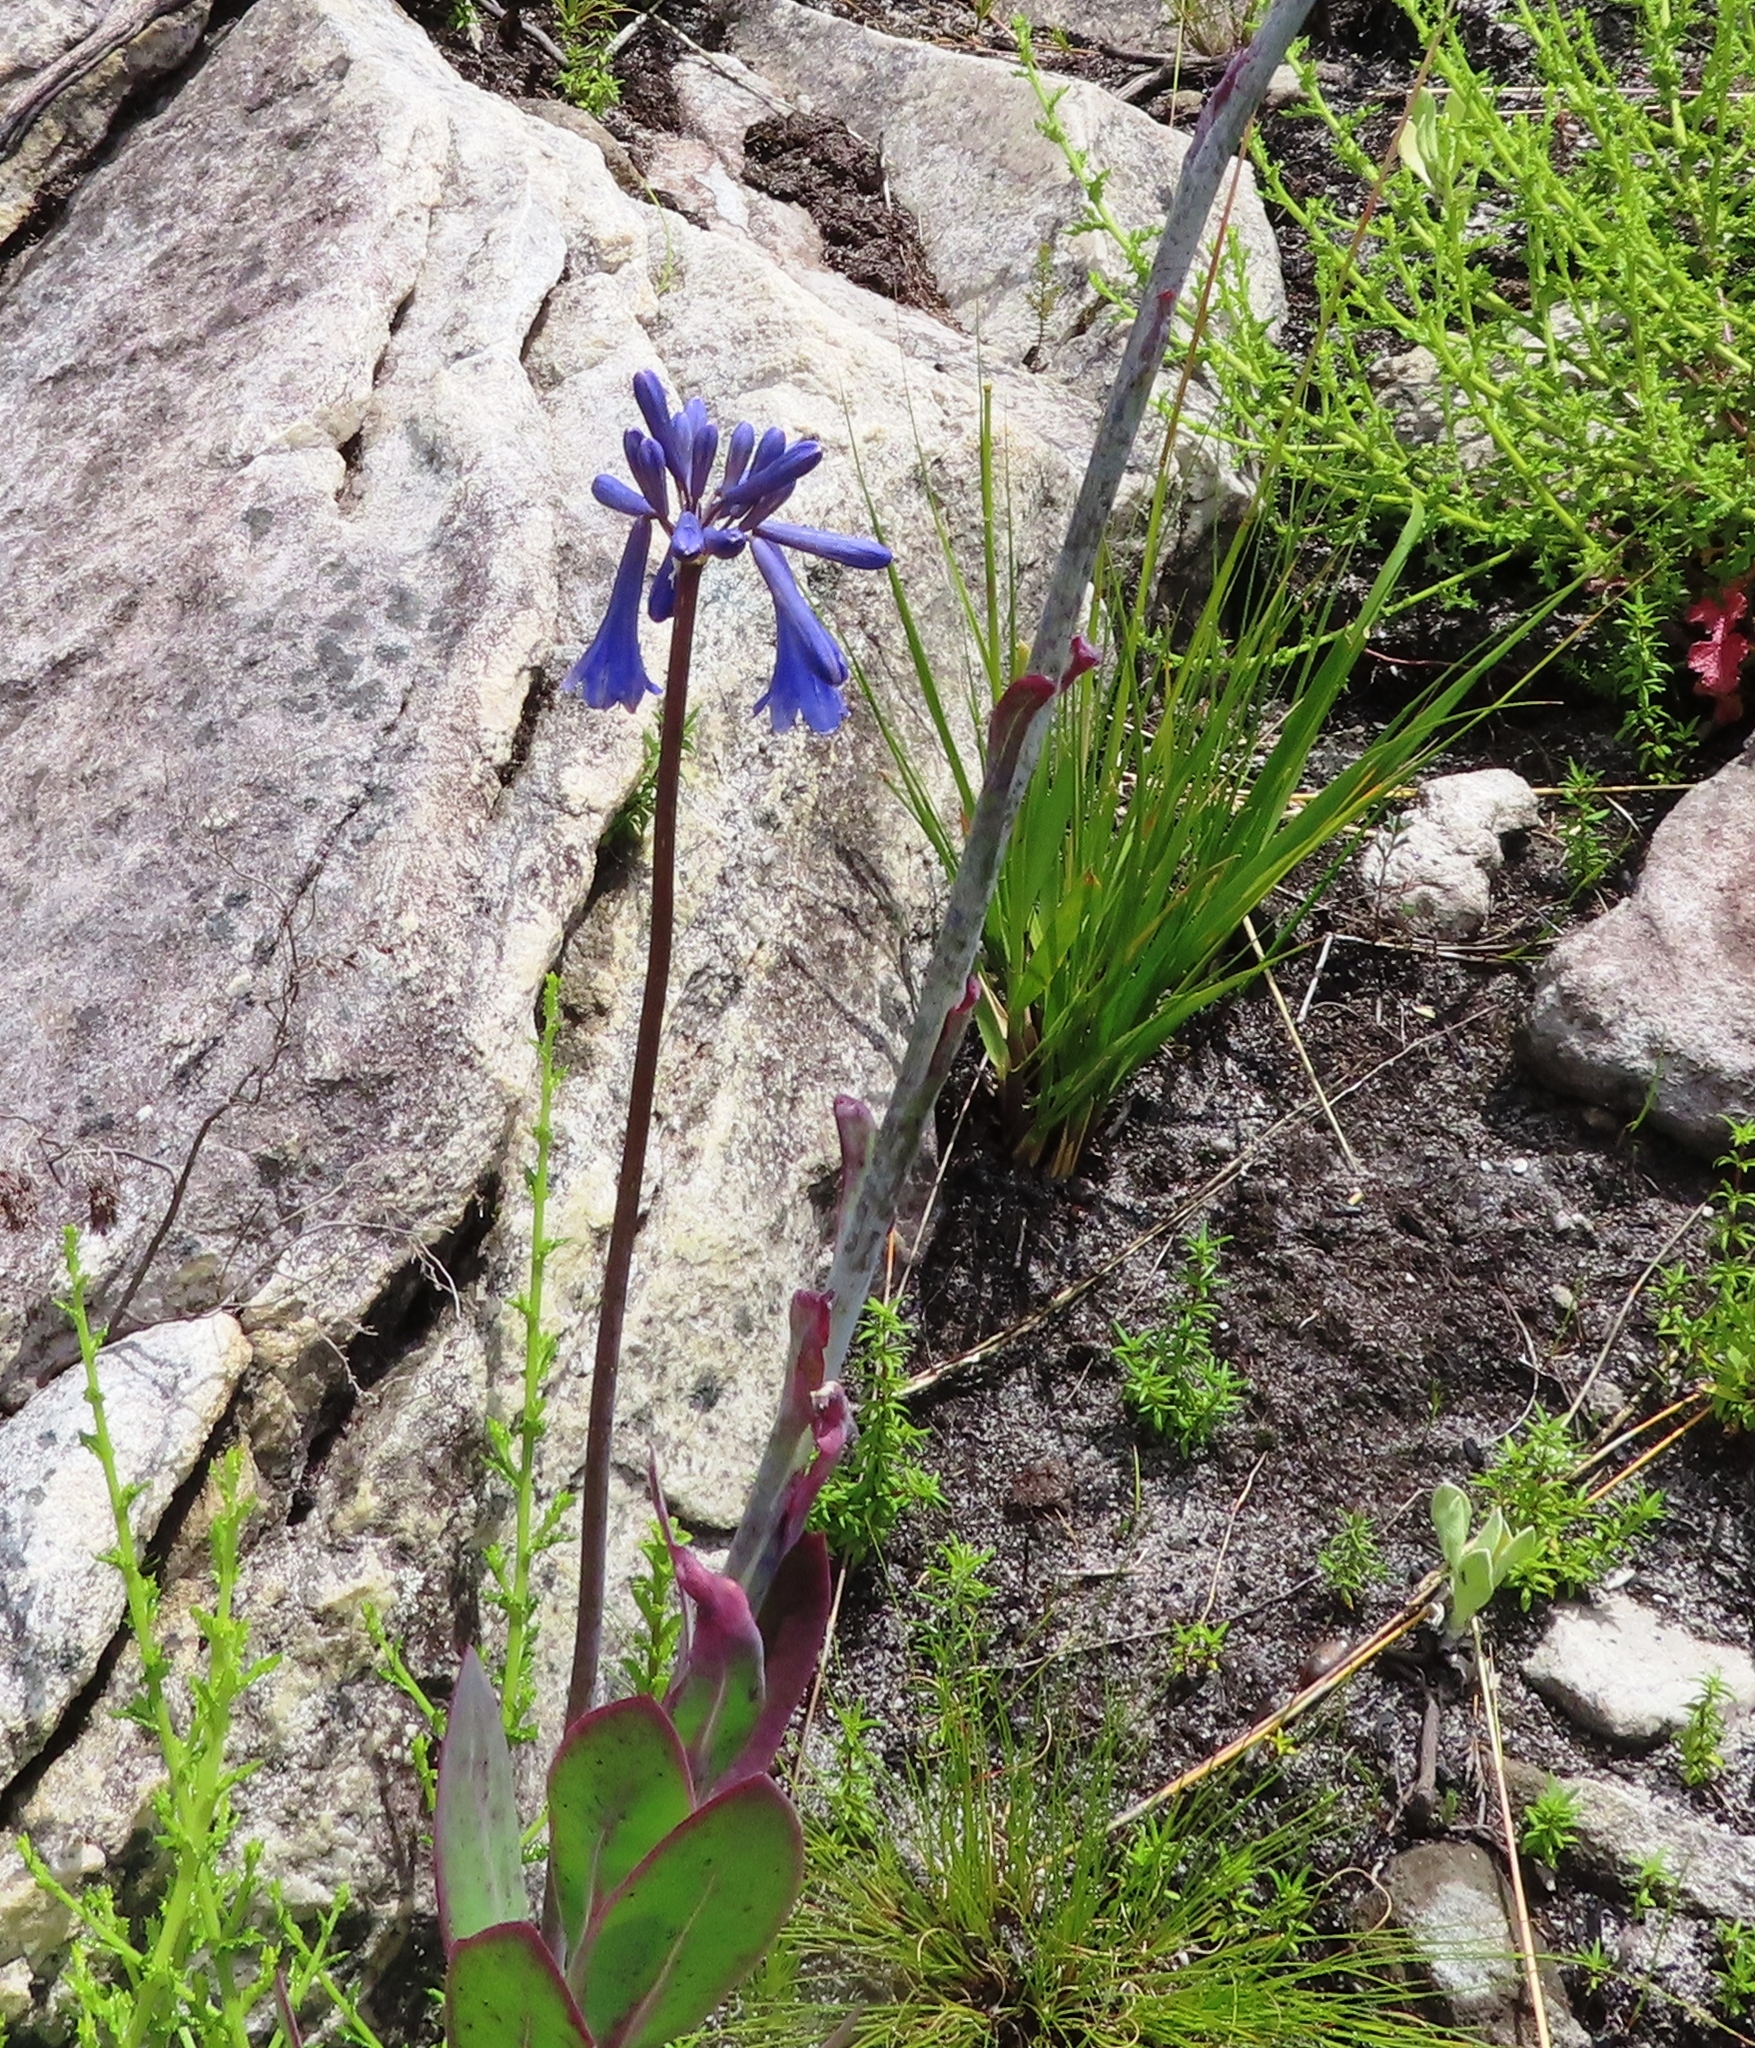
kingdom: Plantae
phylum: Tracheophyta
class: Liliopsida
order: Asparagales
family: Amaryllidaceae
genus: Agapanthus
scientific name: Agapanthus walshii
